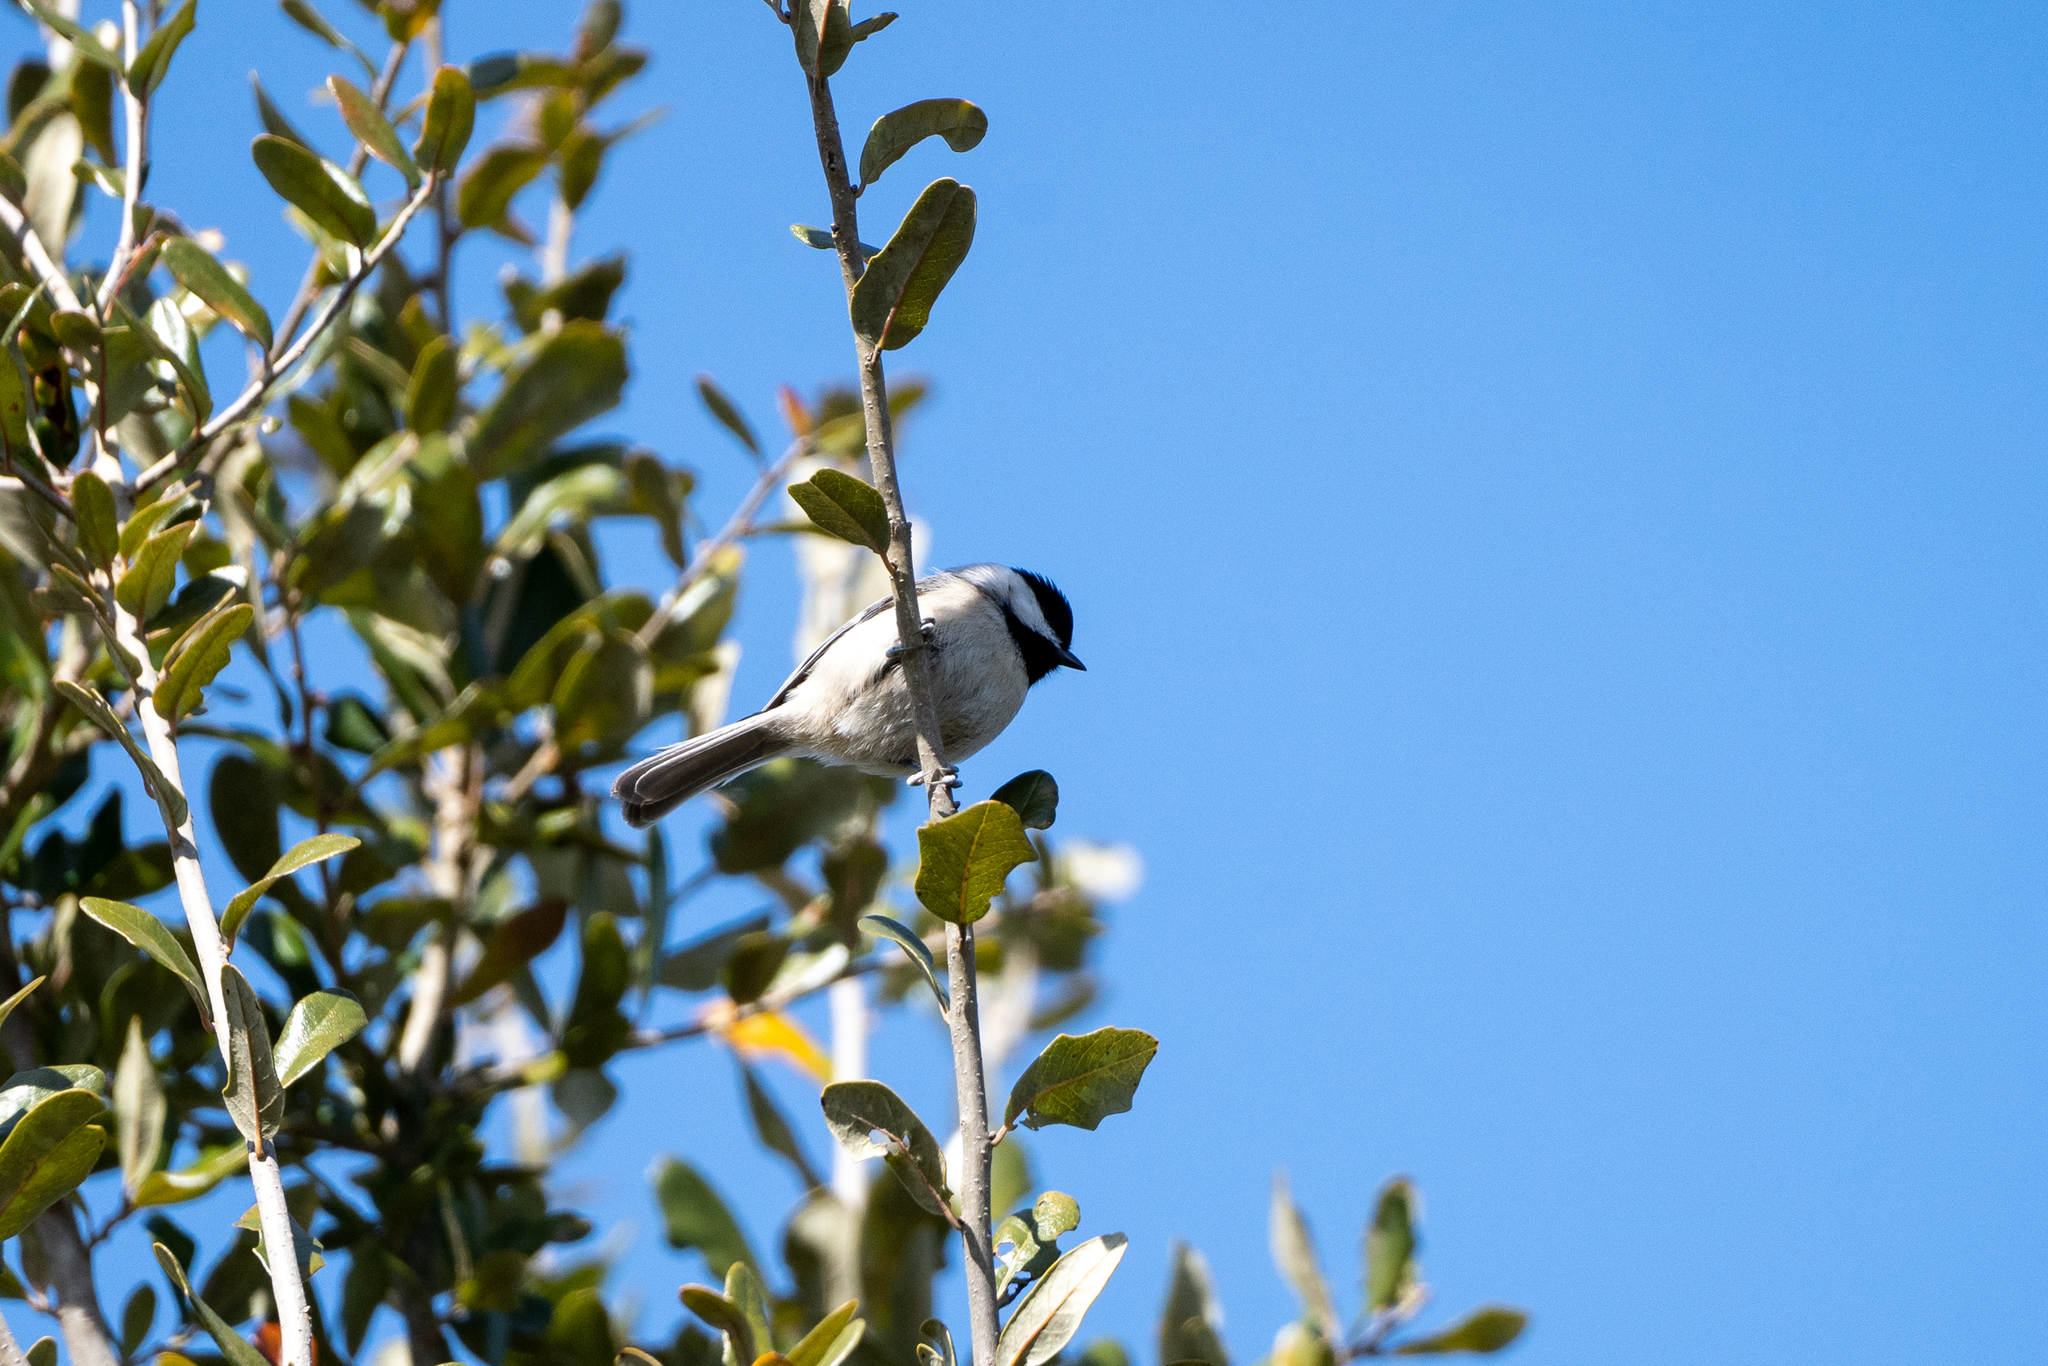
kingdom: Animalia
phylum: Chordata
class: Aves
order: Passeriformes
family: Paridae
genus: Poecile
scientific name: Poecile carolinensis
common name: Carolina chickadee
